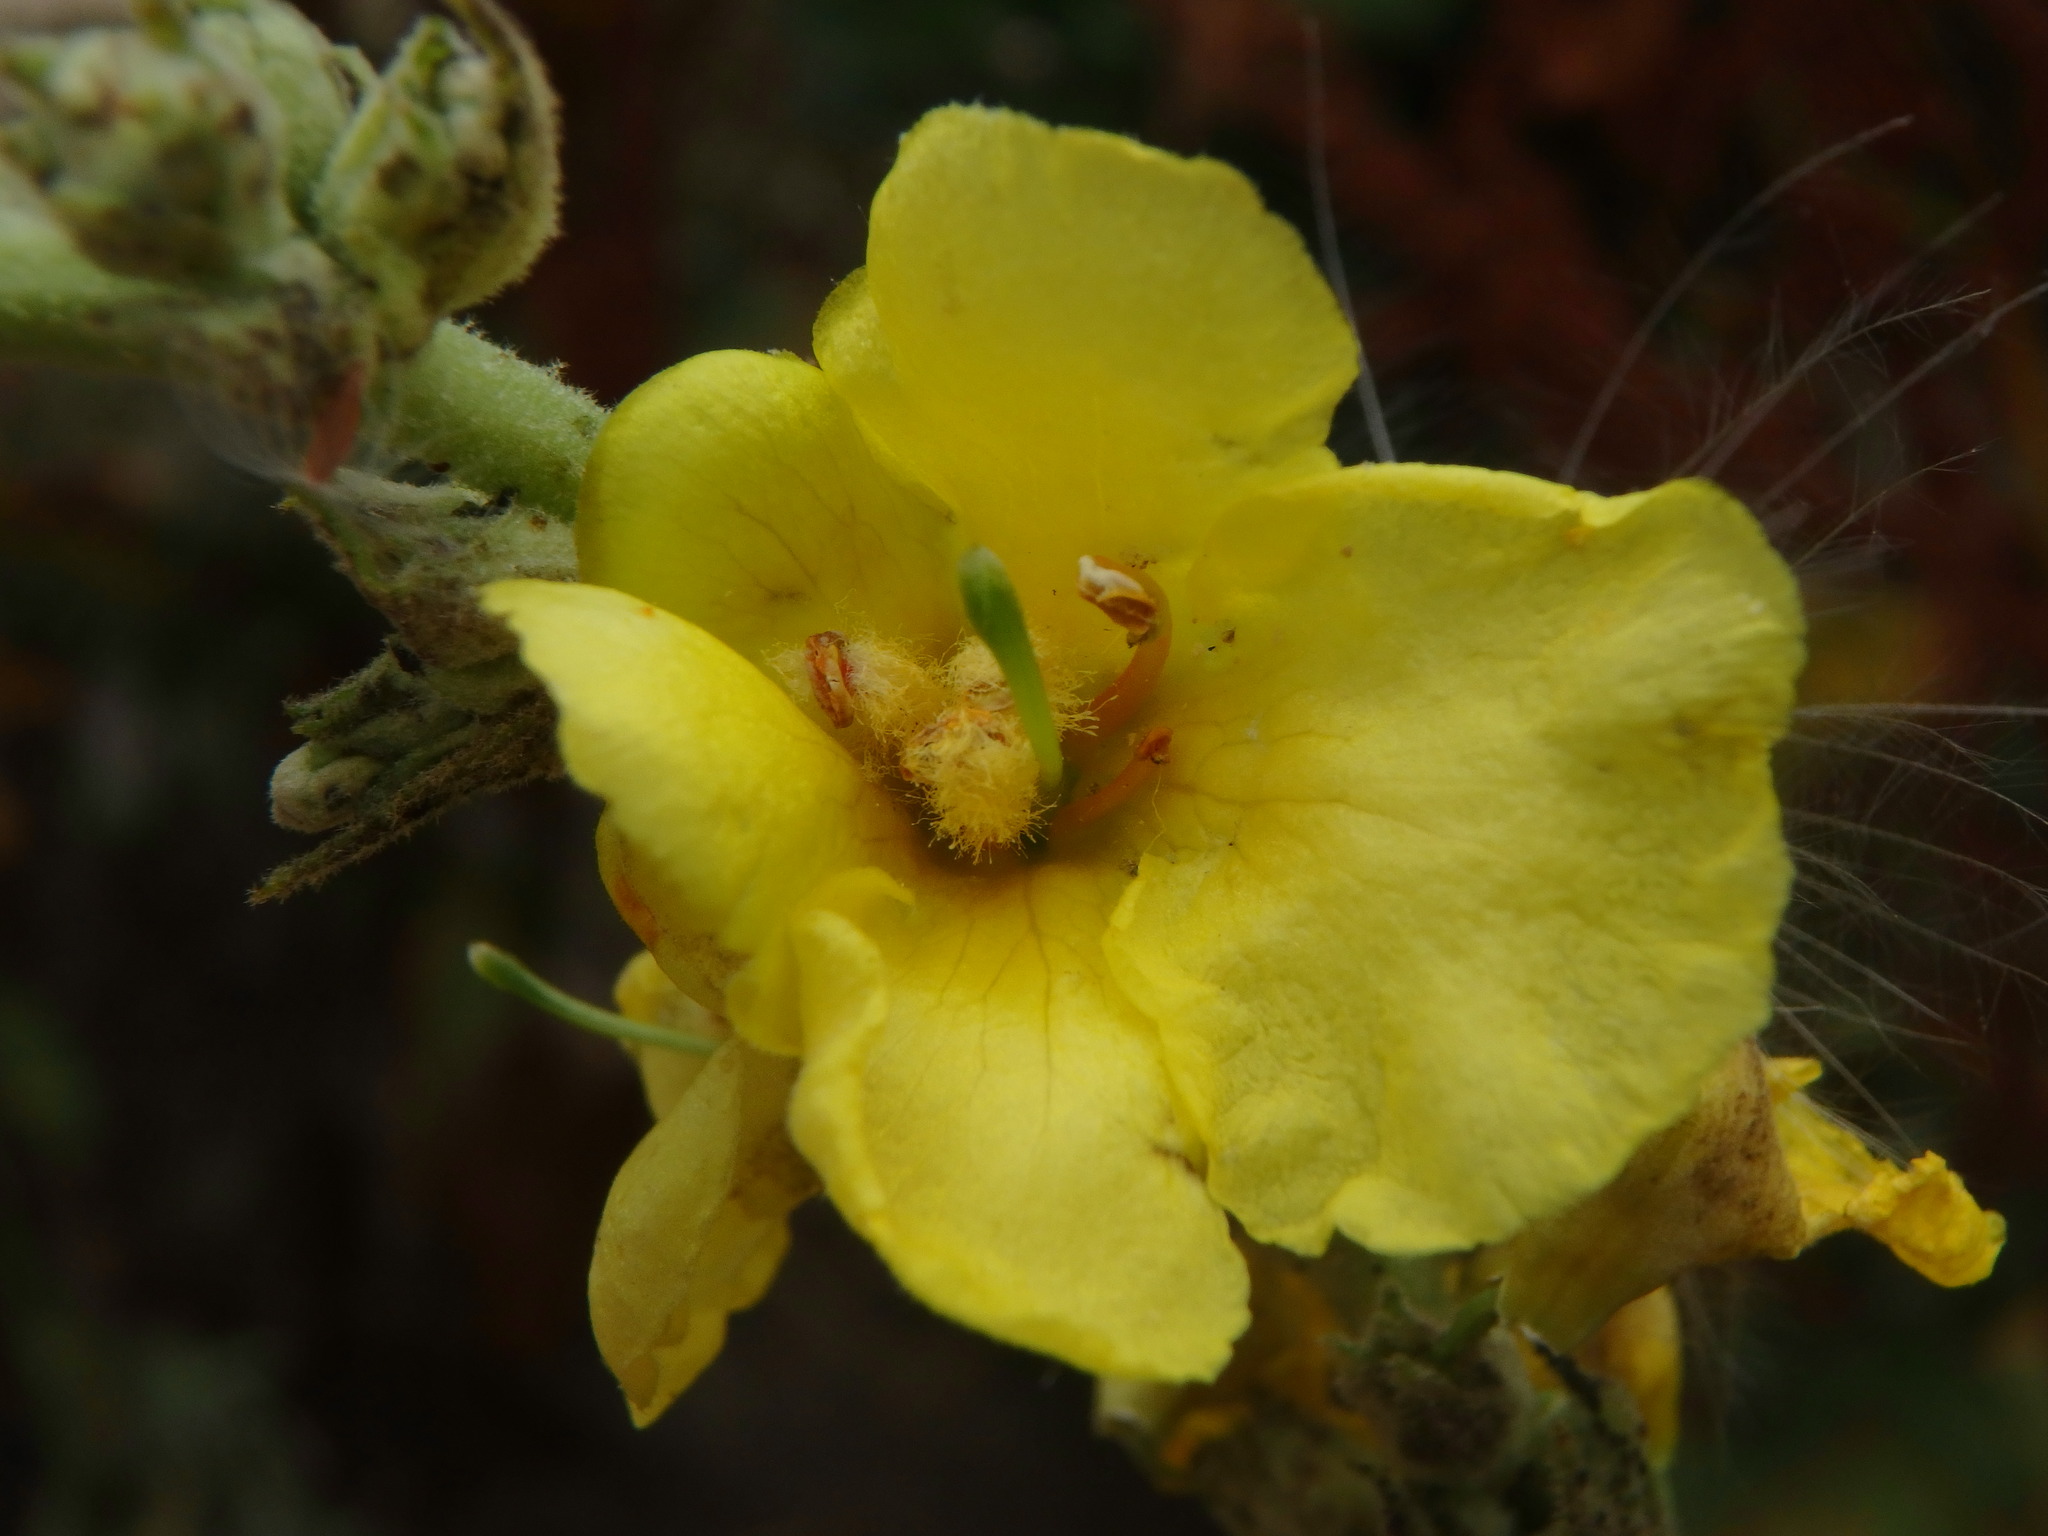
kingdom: Plantae
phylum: Tracheophyta
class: Magnoliopsida
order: Lamiales
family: Scrophulariaceae
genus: Verbascum
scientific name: Verbascum phlomoides
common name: Orange mullein
